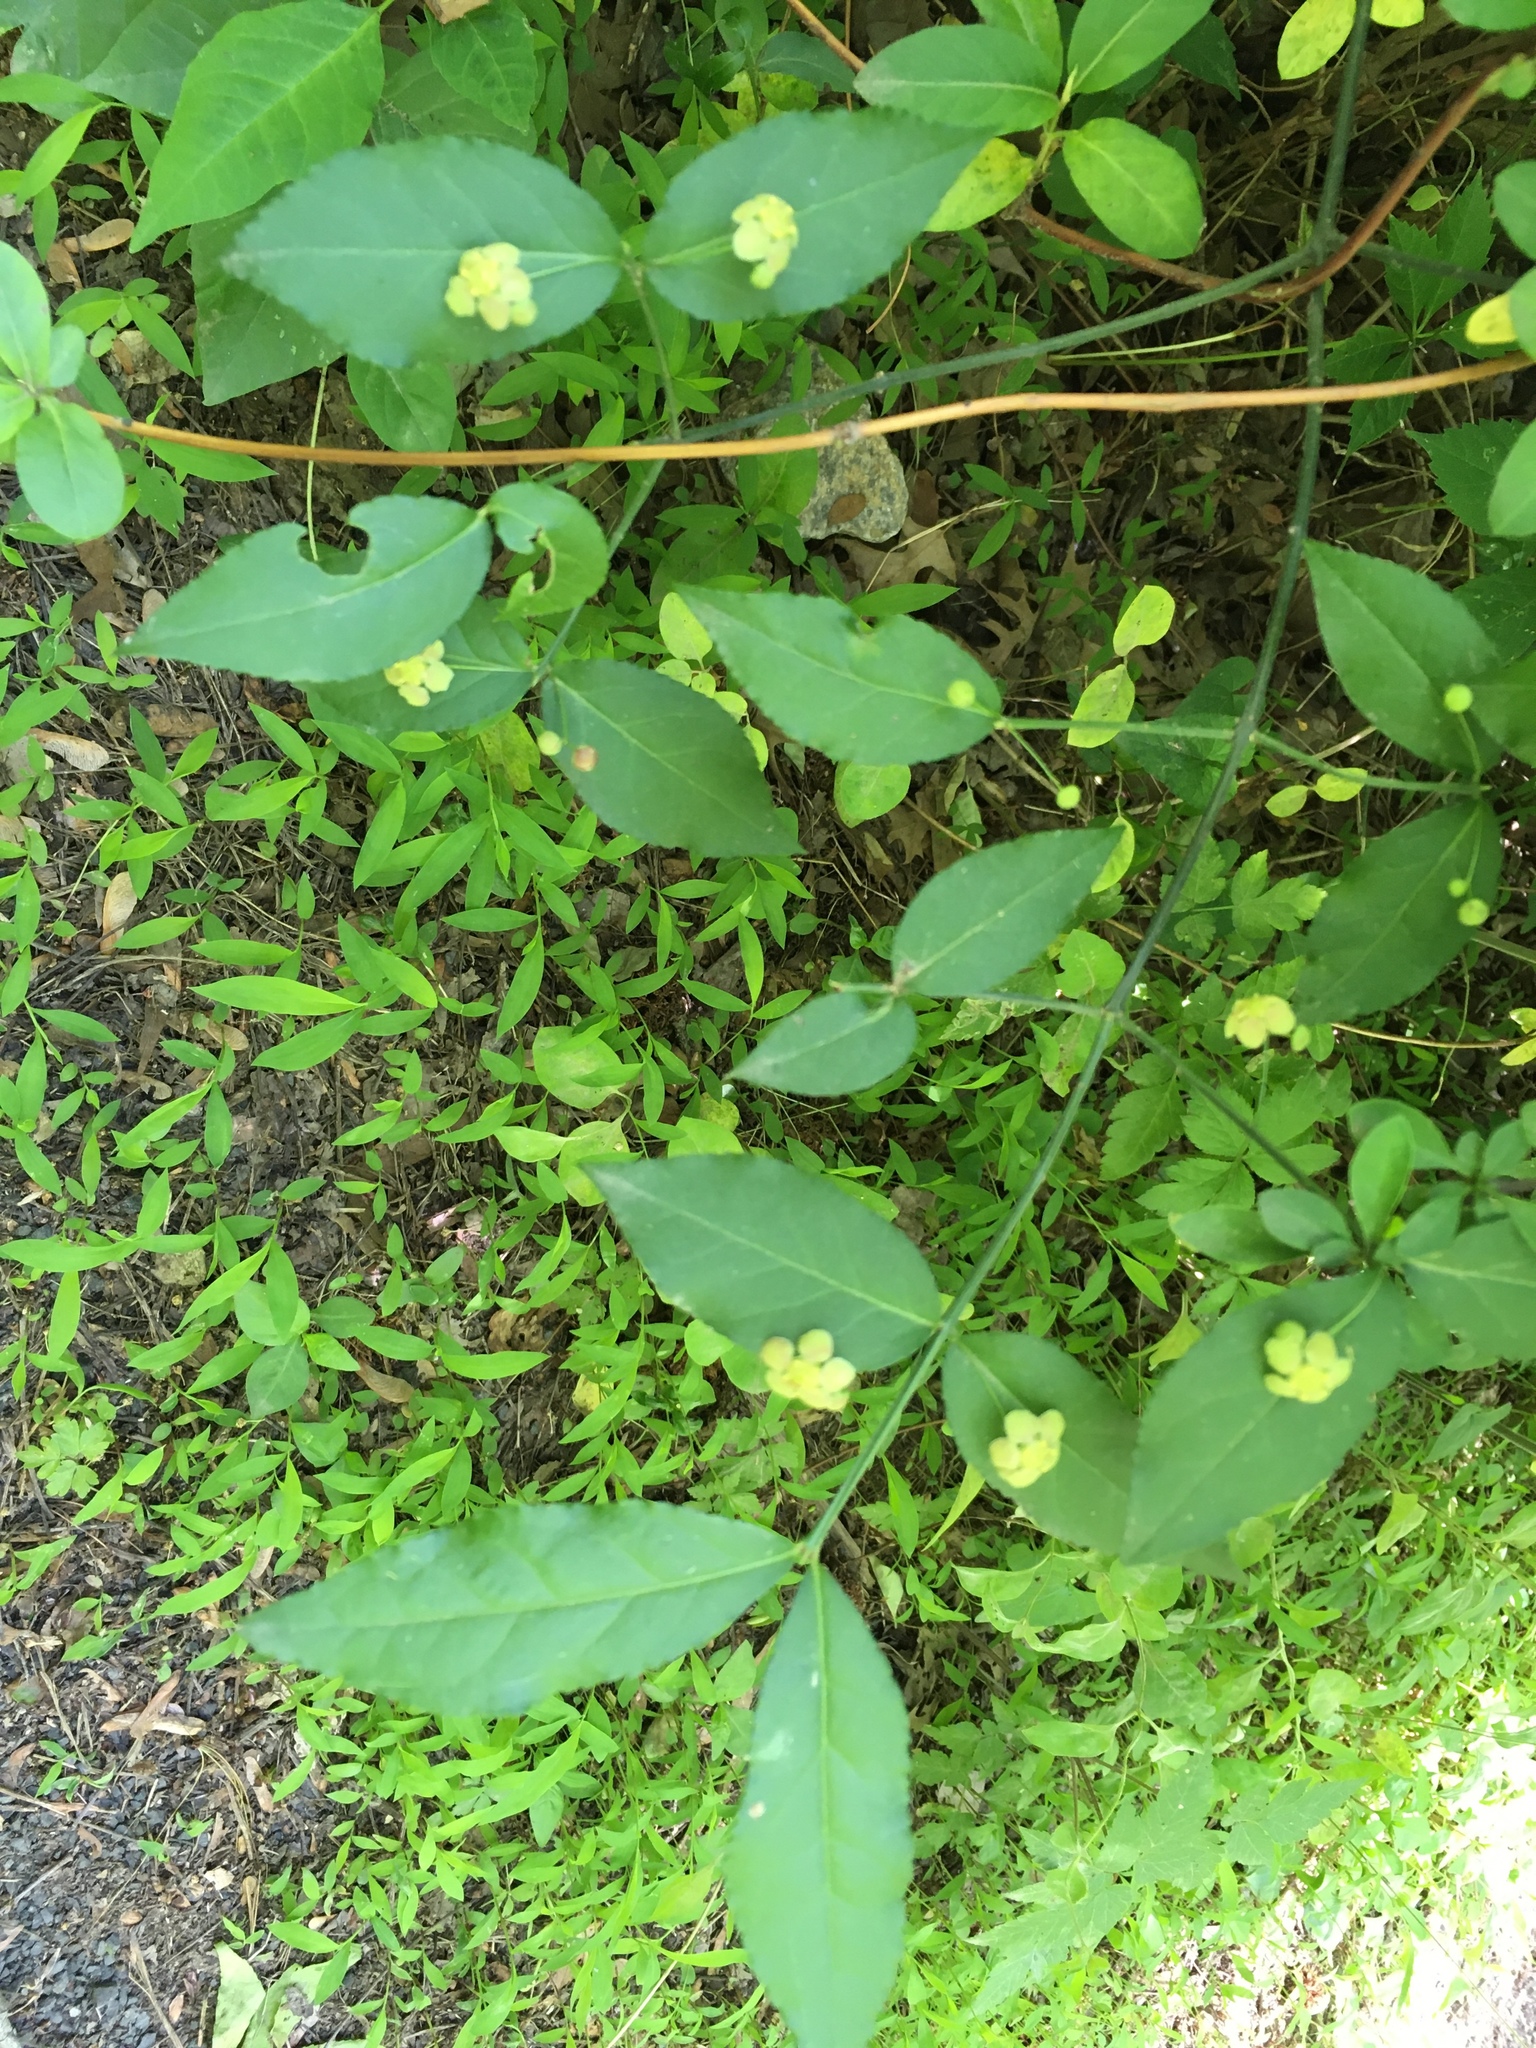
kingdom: Plantae
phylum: Tracheophyta
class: Magnoliopsida
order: Celastrales
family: Celastraceae
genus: Euonymus
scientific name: Euonymus americanus
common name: Bursting-heart
